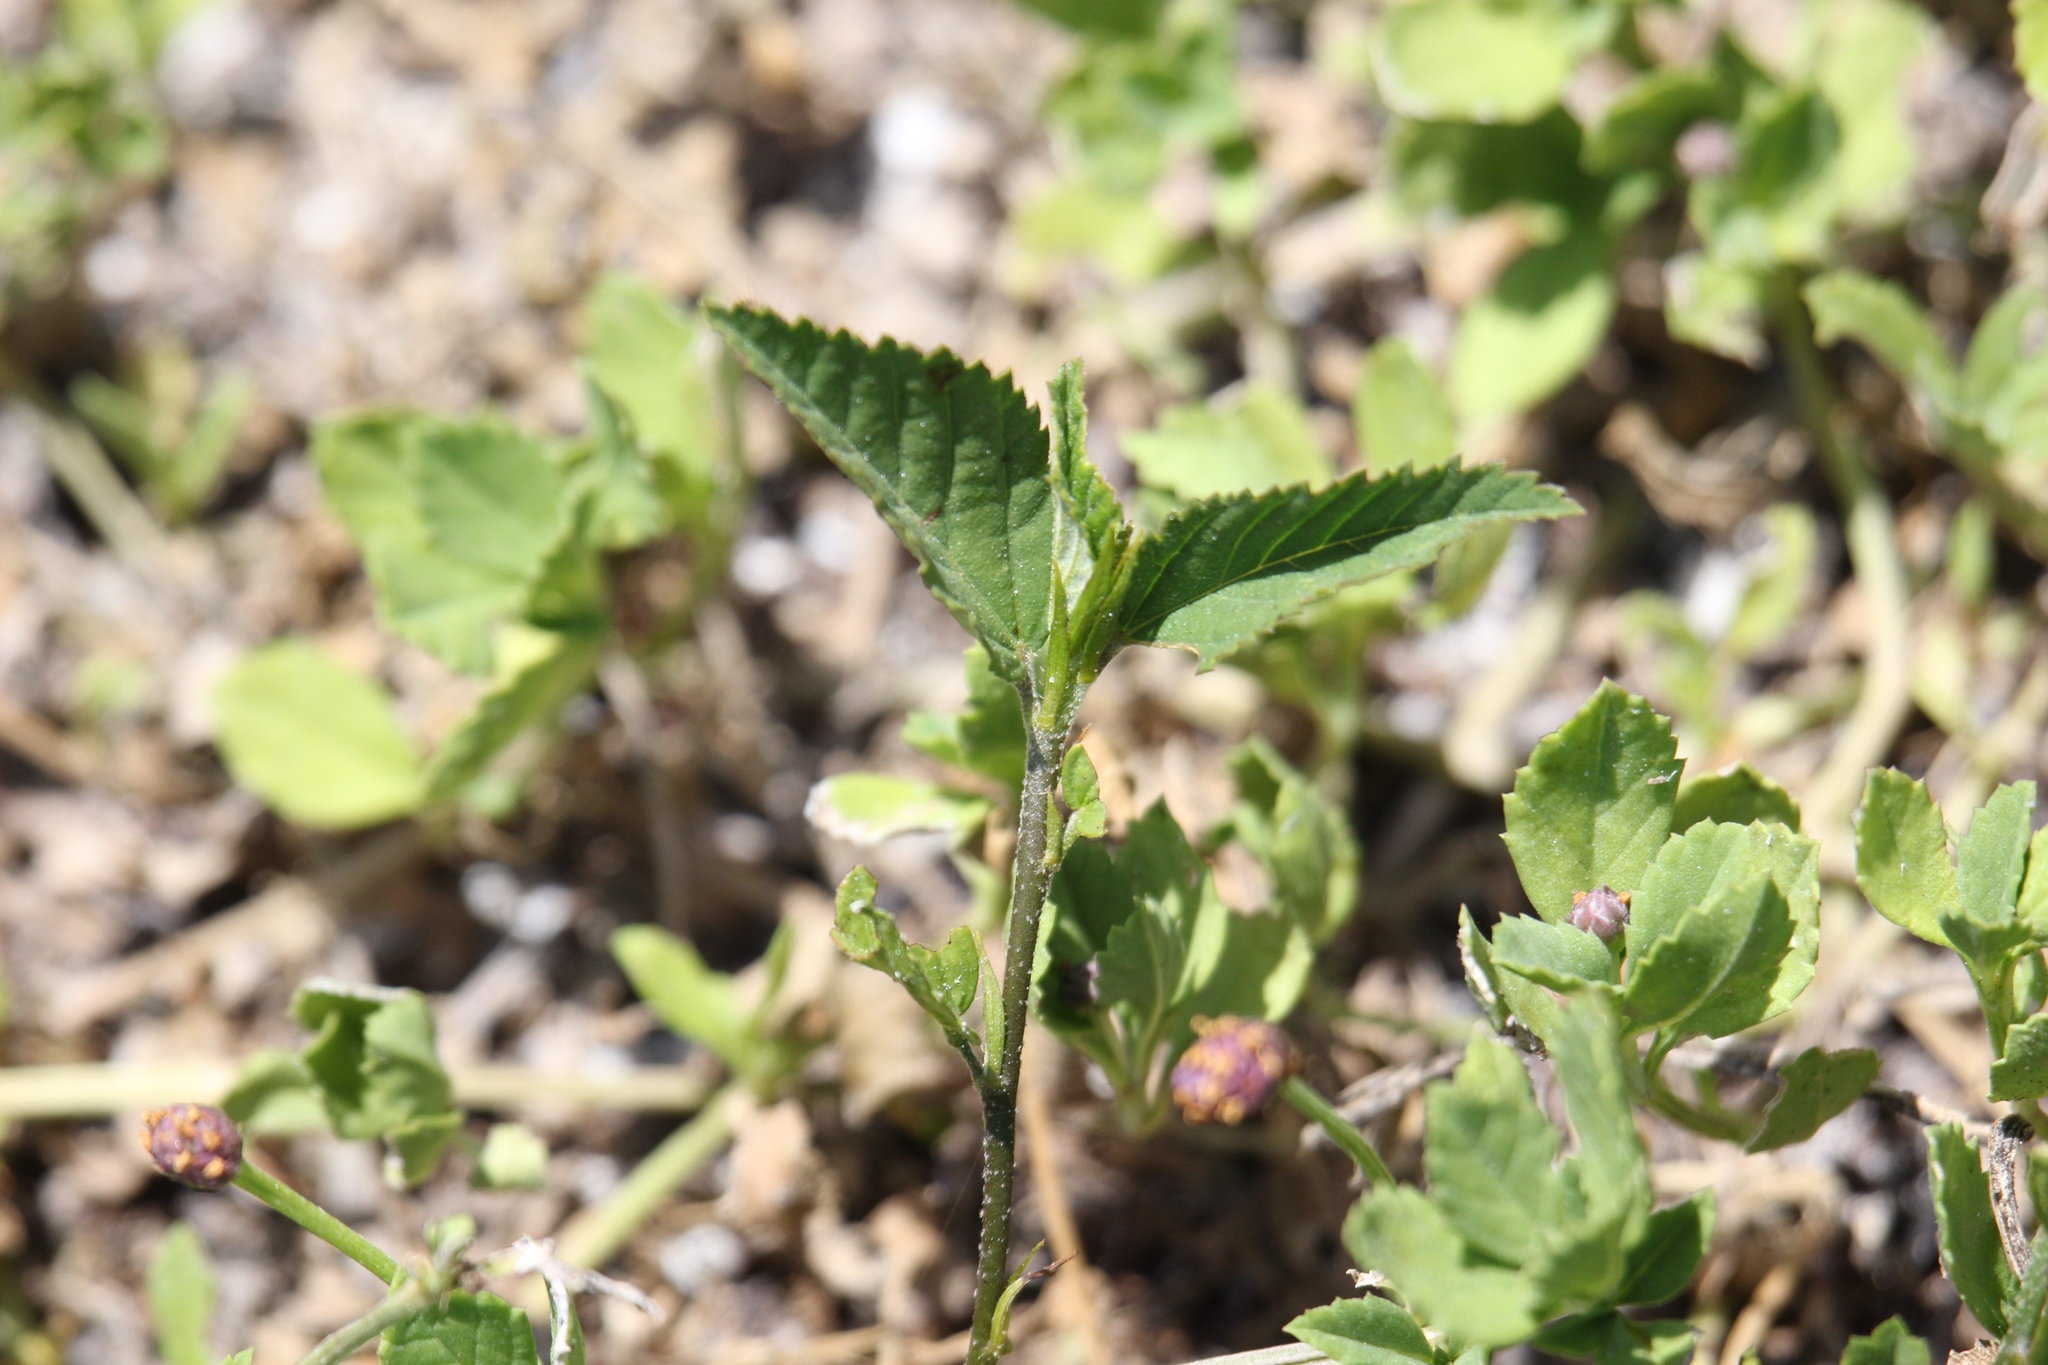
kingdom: Plantae
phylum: Tracheophyta
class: Magnoliopsida
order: Asterales
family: Asteraceae
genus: Bidens
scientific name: Bidens alba
